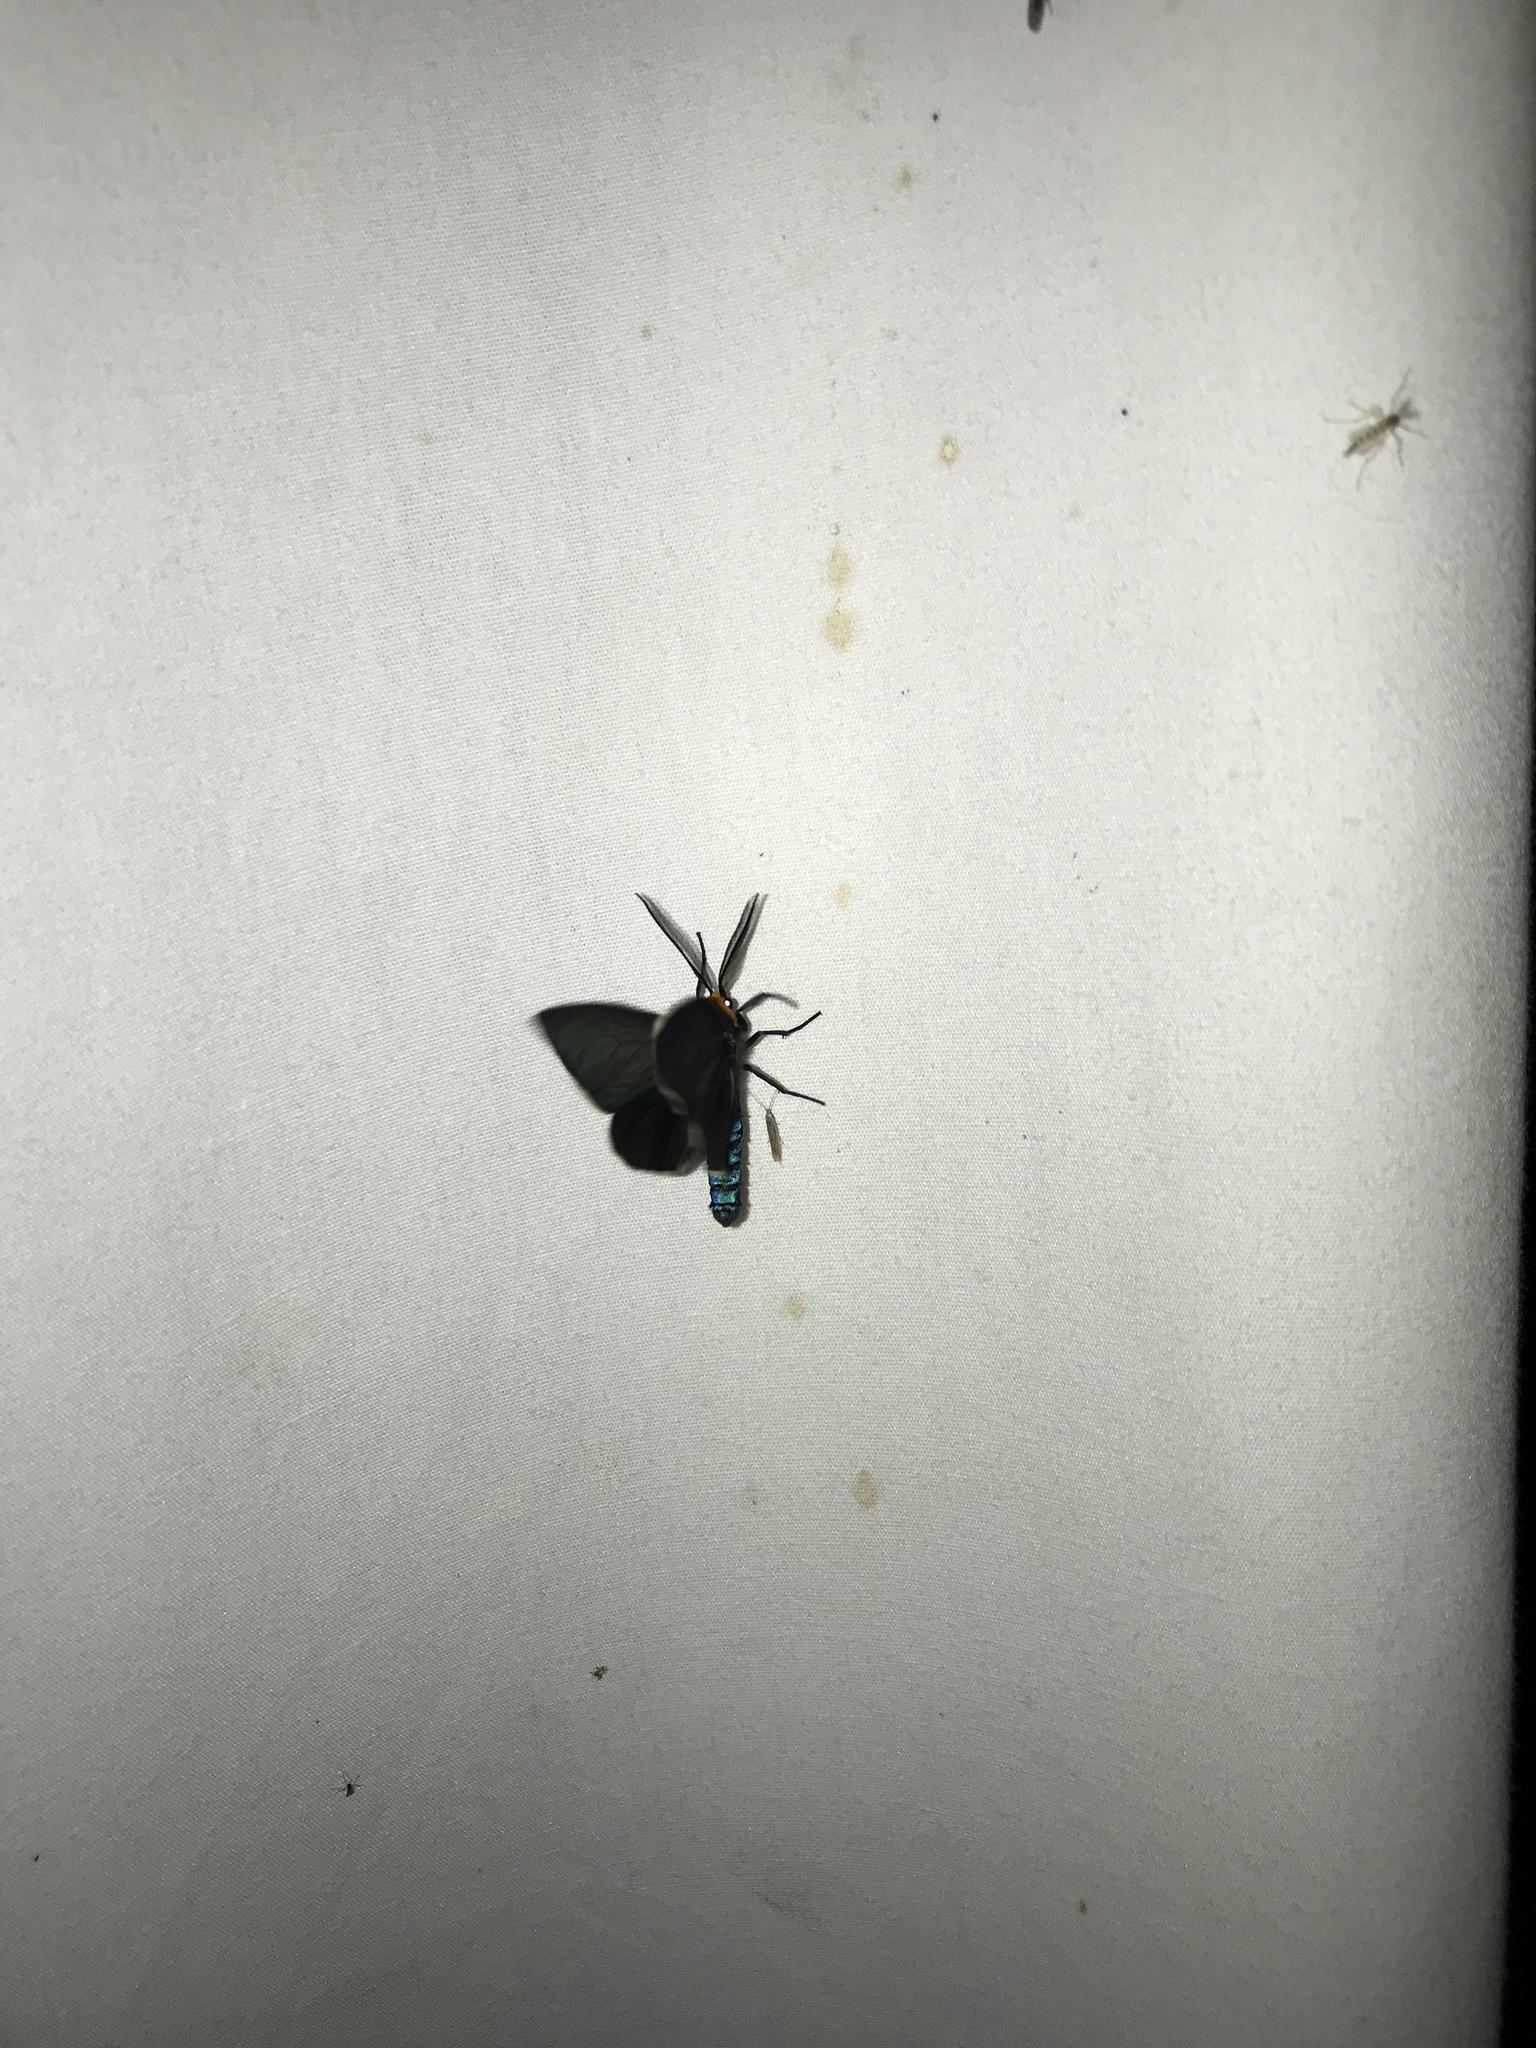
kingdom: Animalia
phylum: Arthropoda
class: Insecta
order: Lepidoptera
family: Erebidae
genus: Ctenucha
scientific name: Ctenucha virginica
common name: Virginia ctenucha moth
